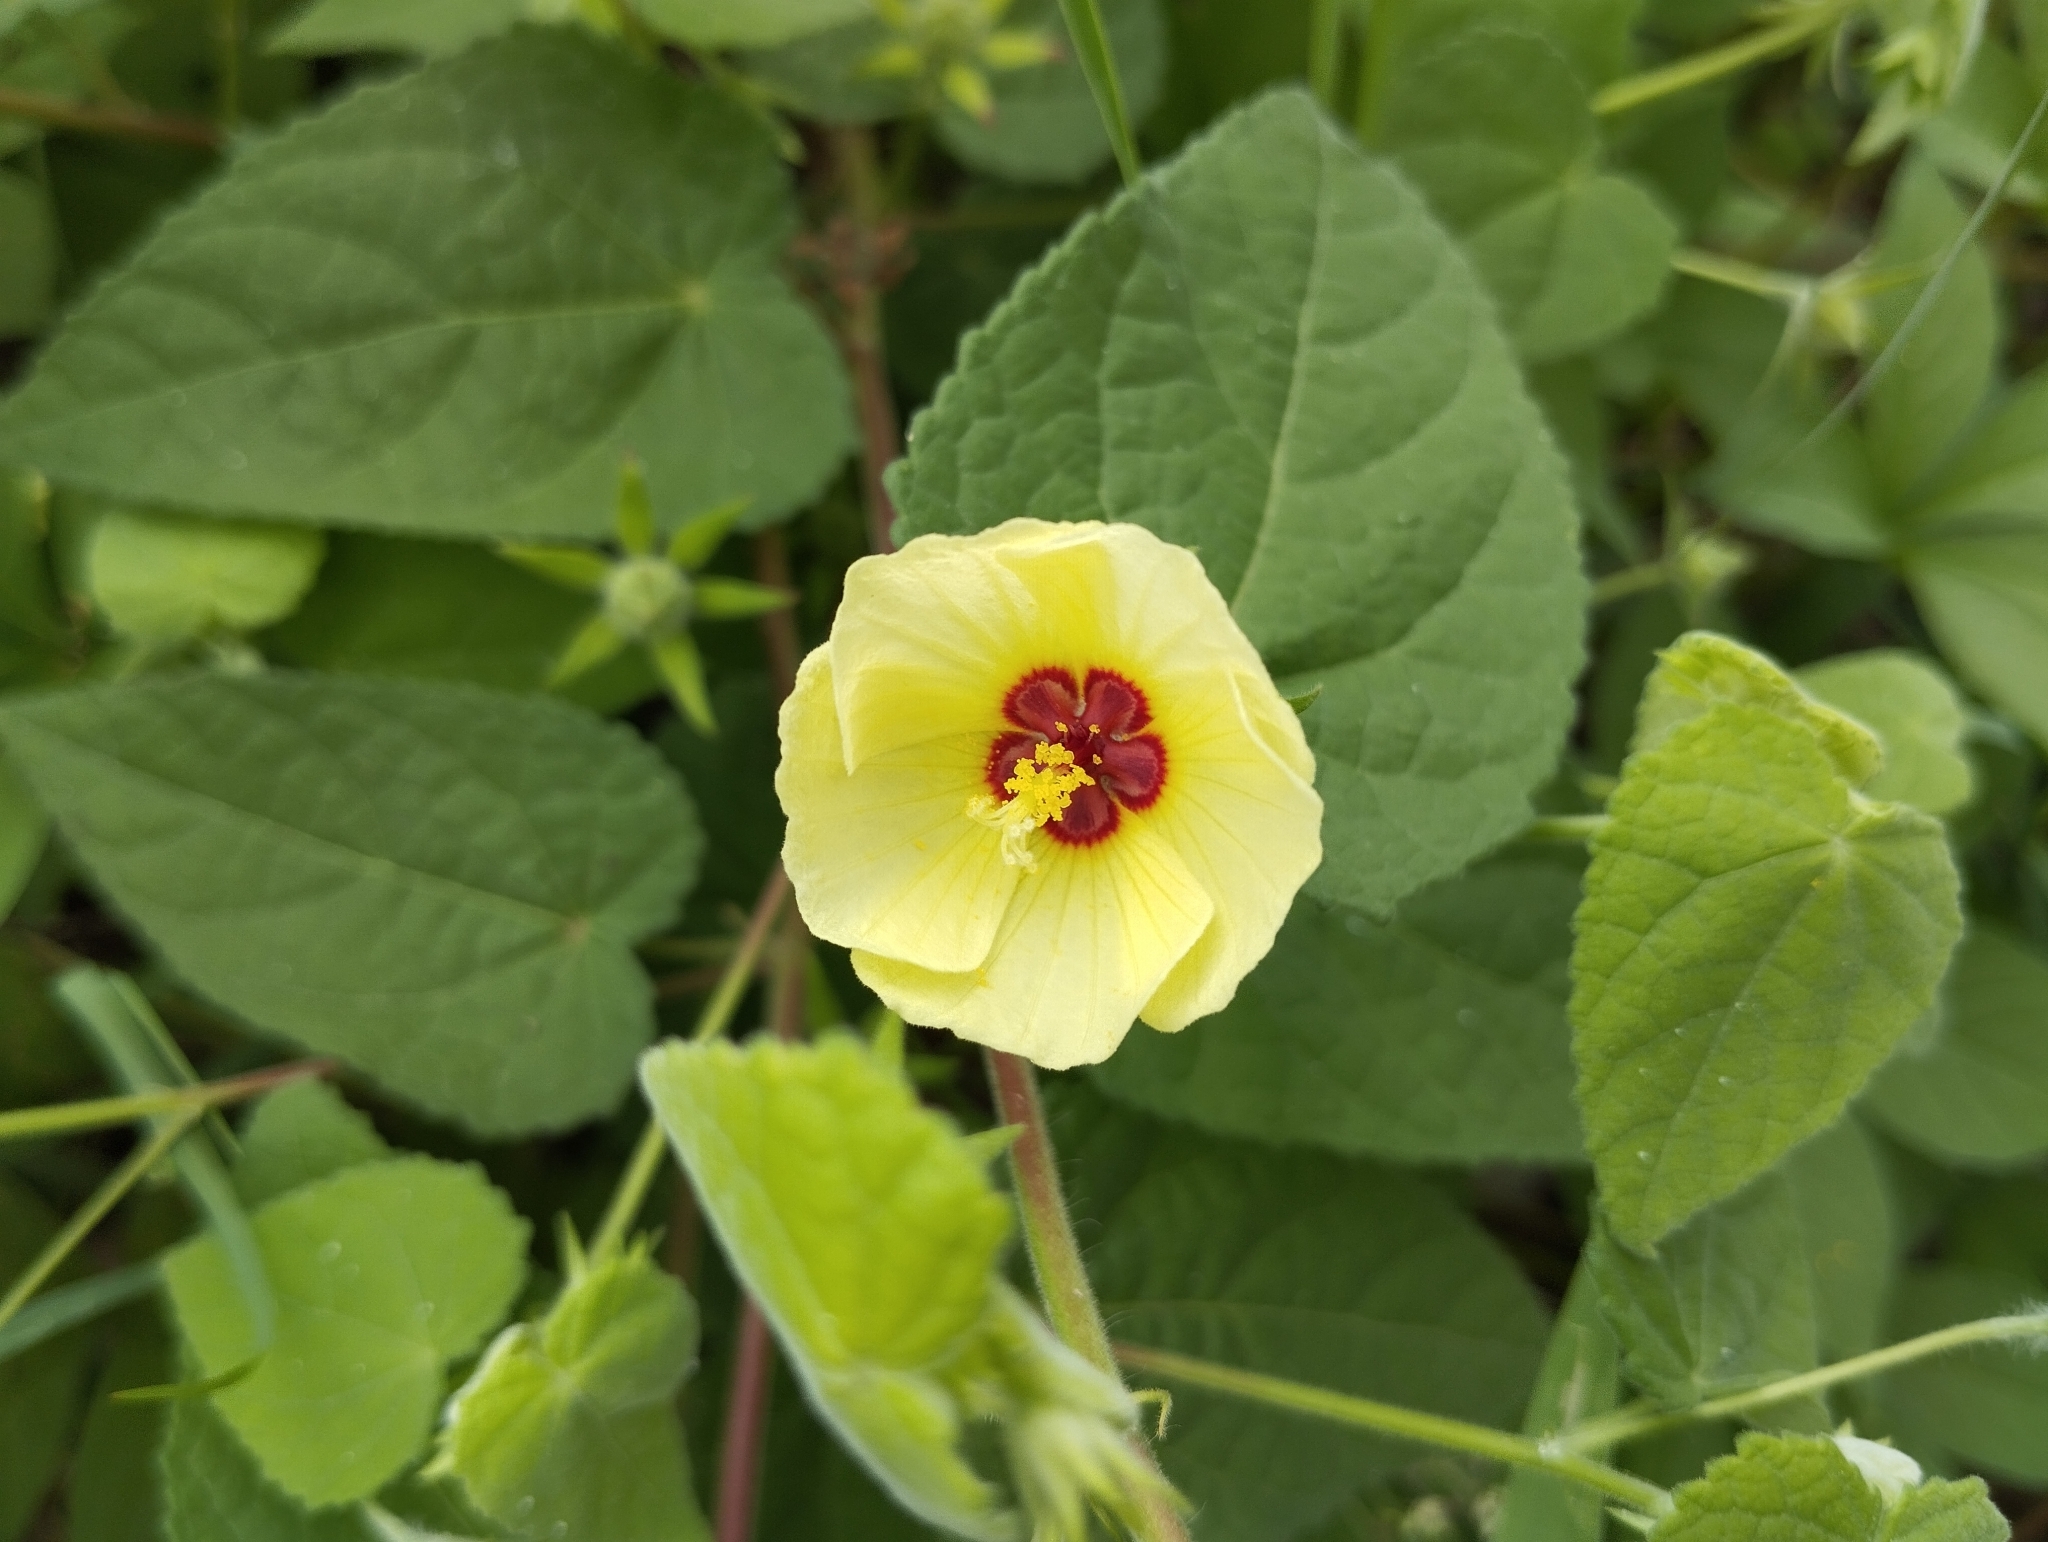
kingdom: Plantae
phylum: Tracheophyta
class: Magnoliopsida
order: Malvales
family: Malvaceae
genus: Pavonia
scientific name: Pavonia cancellata
